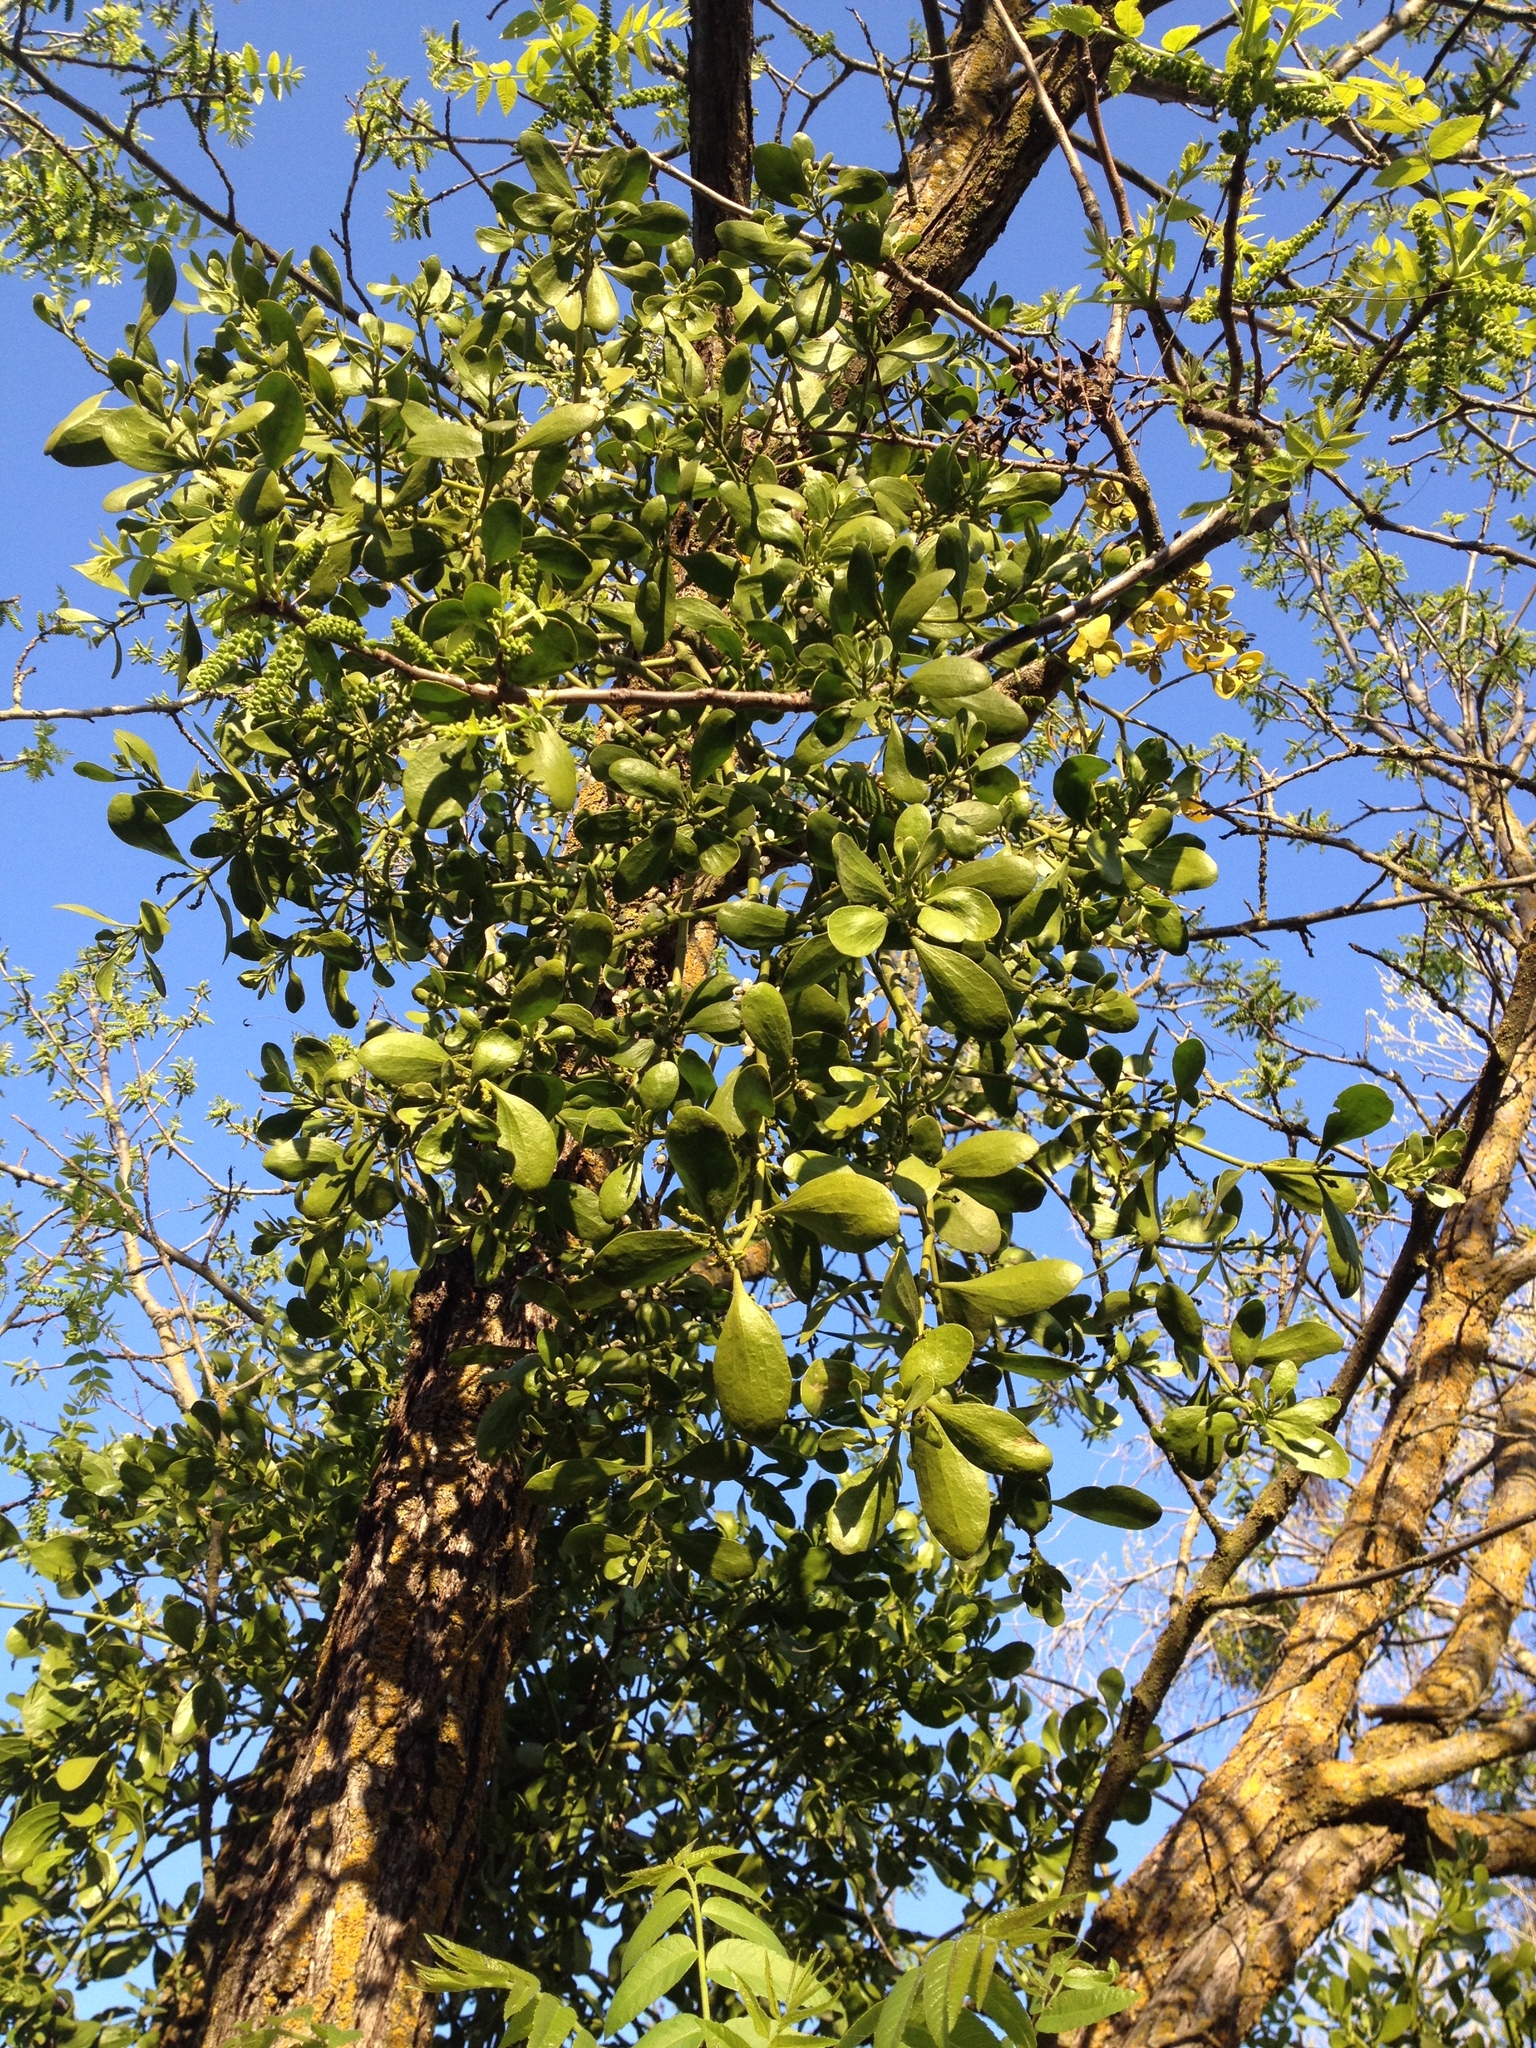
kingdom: Plantae
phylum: Tracheophyta
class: Magnoliopsida
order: Santalales
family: Viscaceae
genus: Phoradendron
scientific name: Phoradendron
